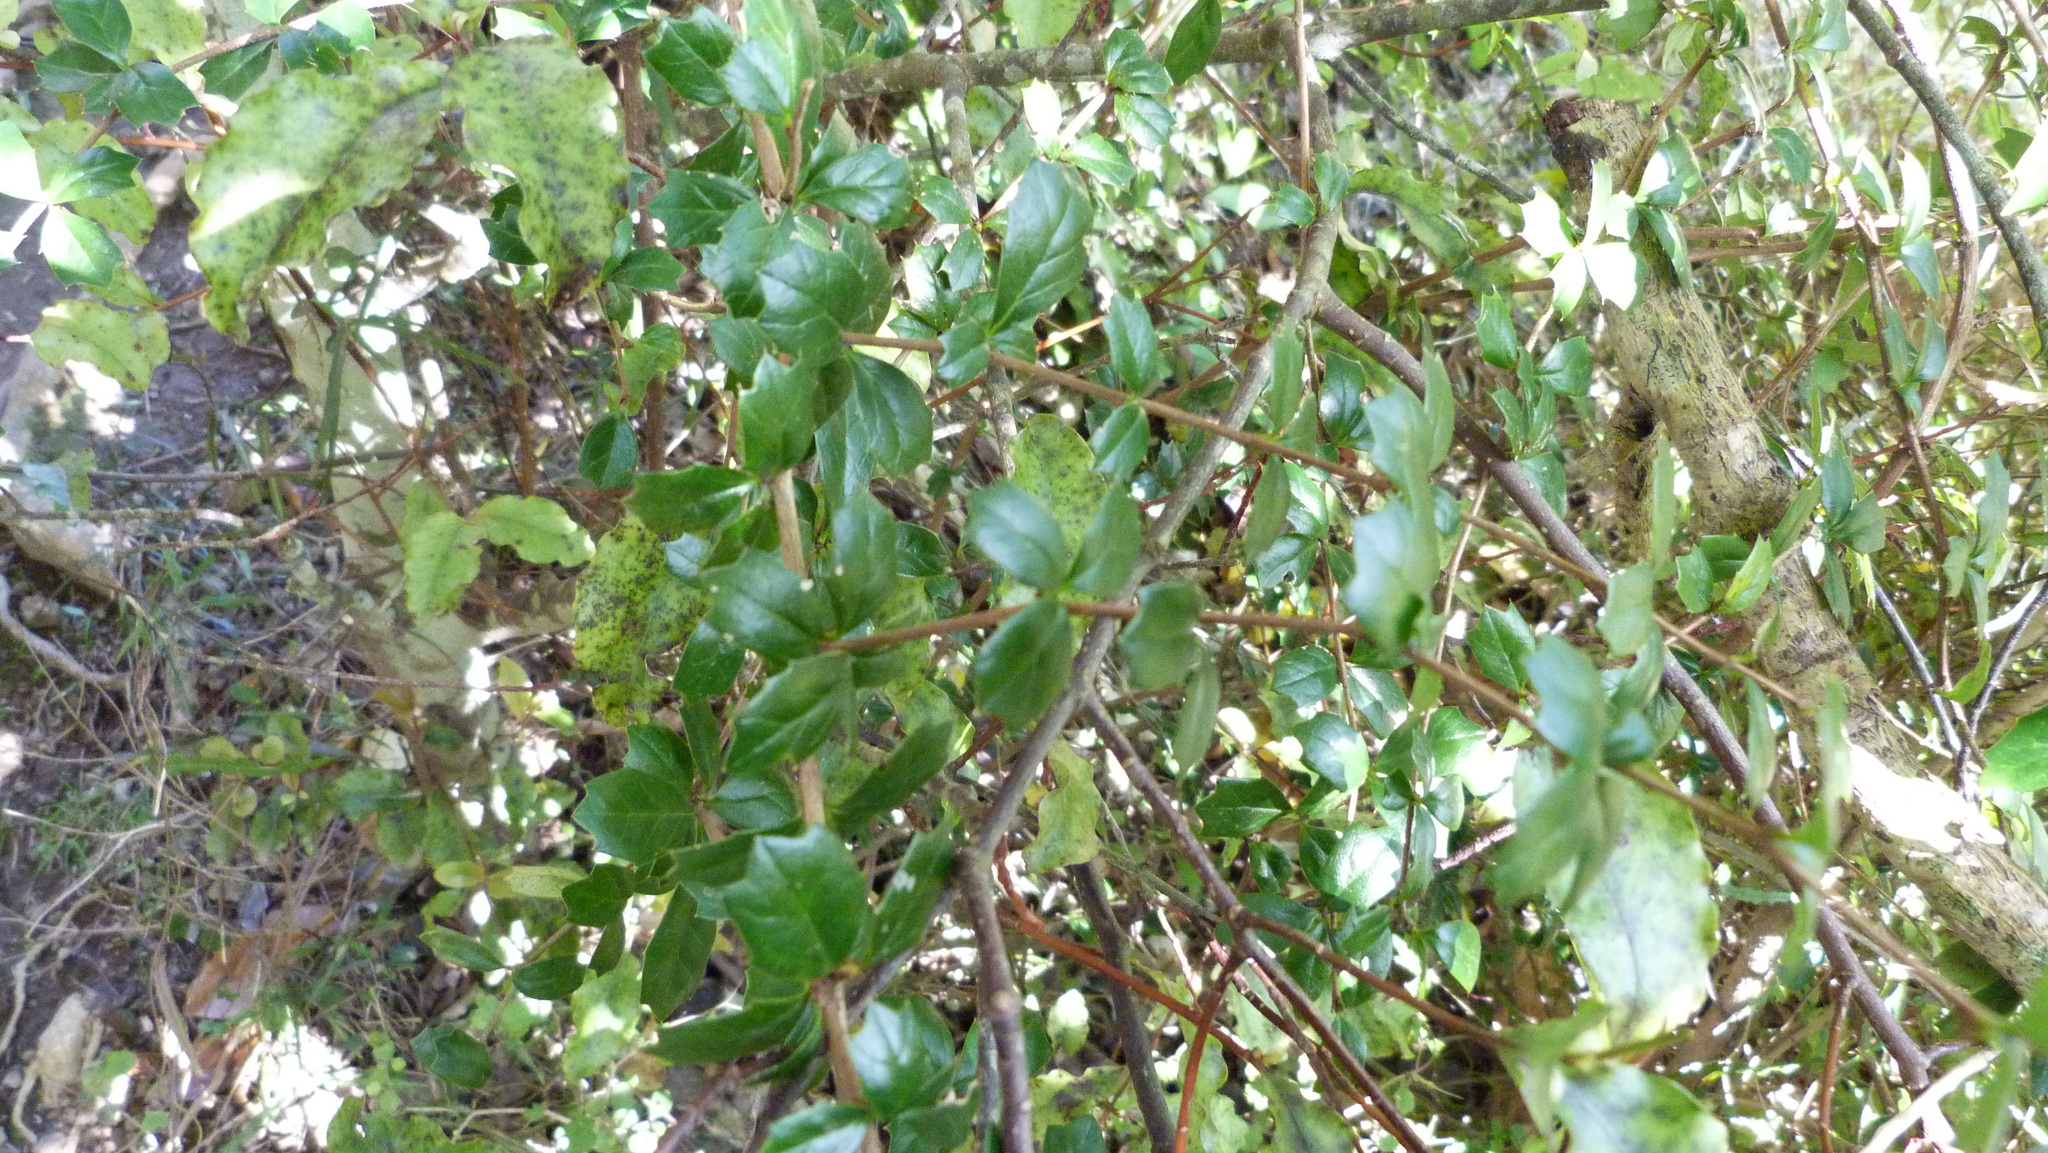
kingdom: Plantae
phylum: Tracheophyta
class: Magnoliopsida
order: Ranunculales
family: Berberidaceae
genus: Berberis
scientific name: Berberis darwinii
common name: Darwin's barberry
